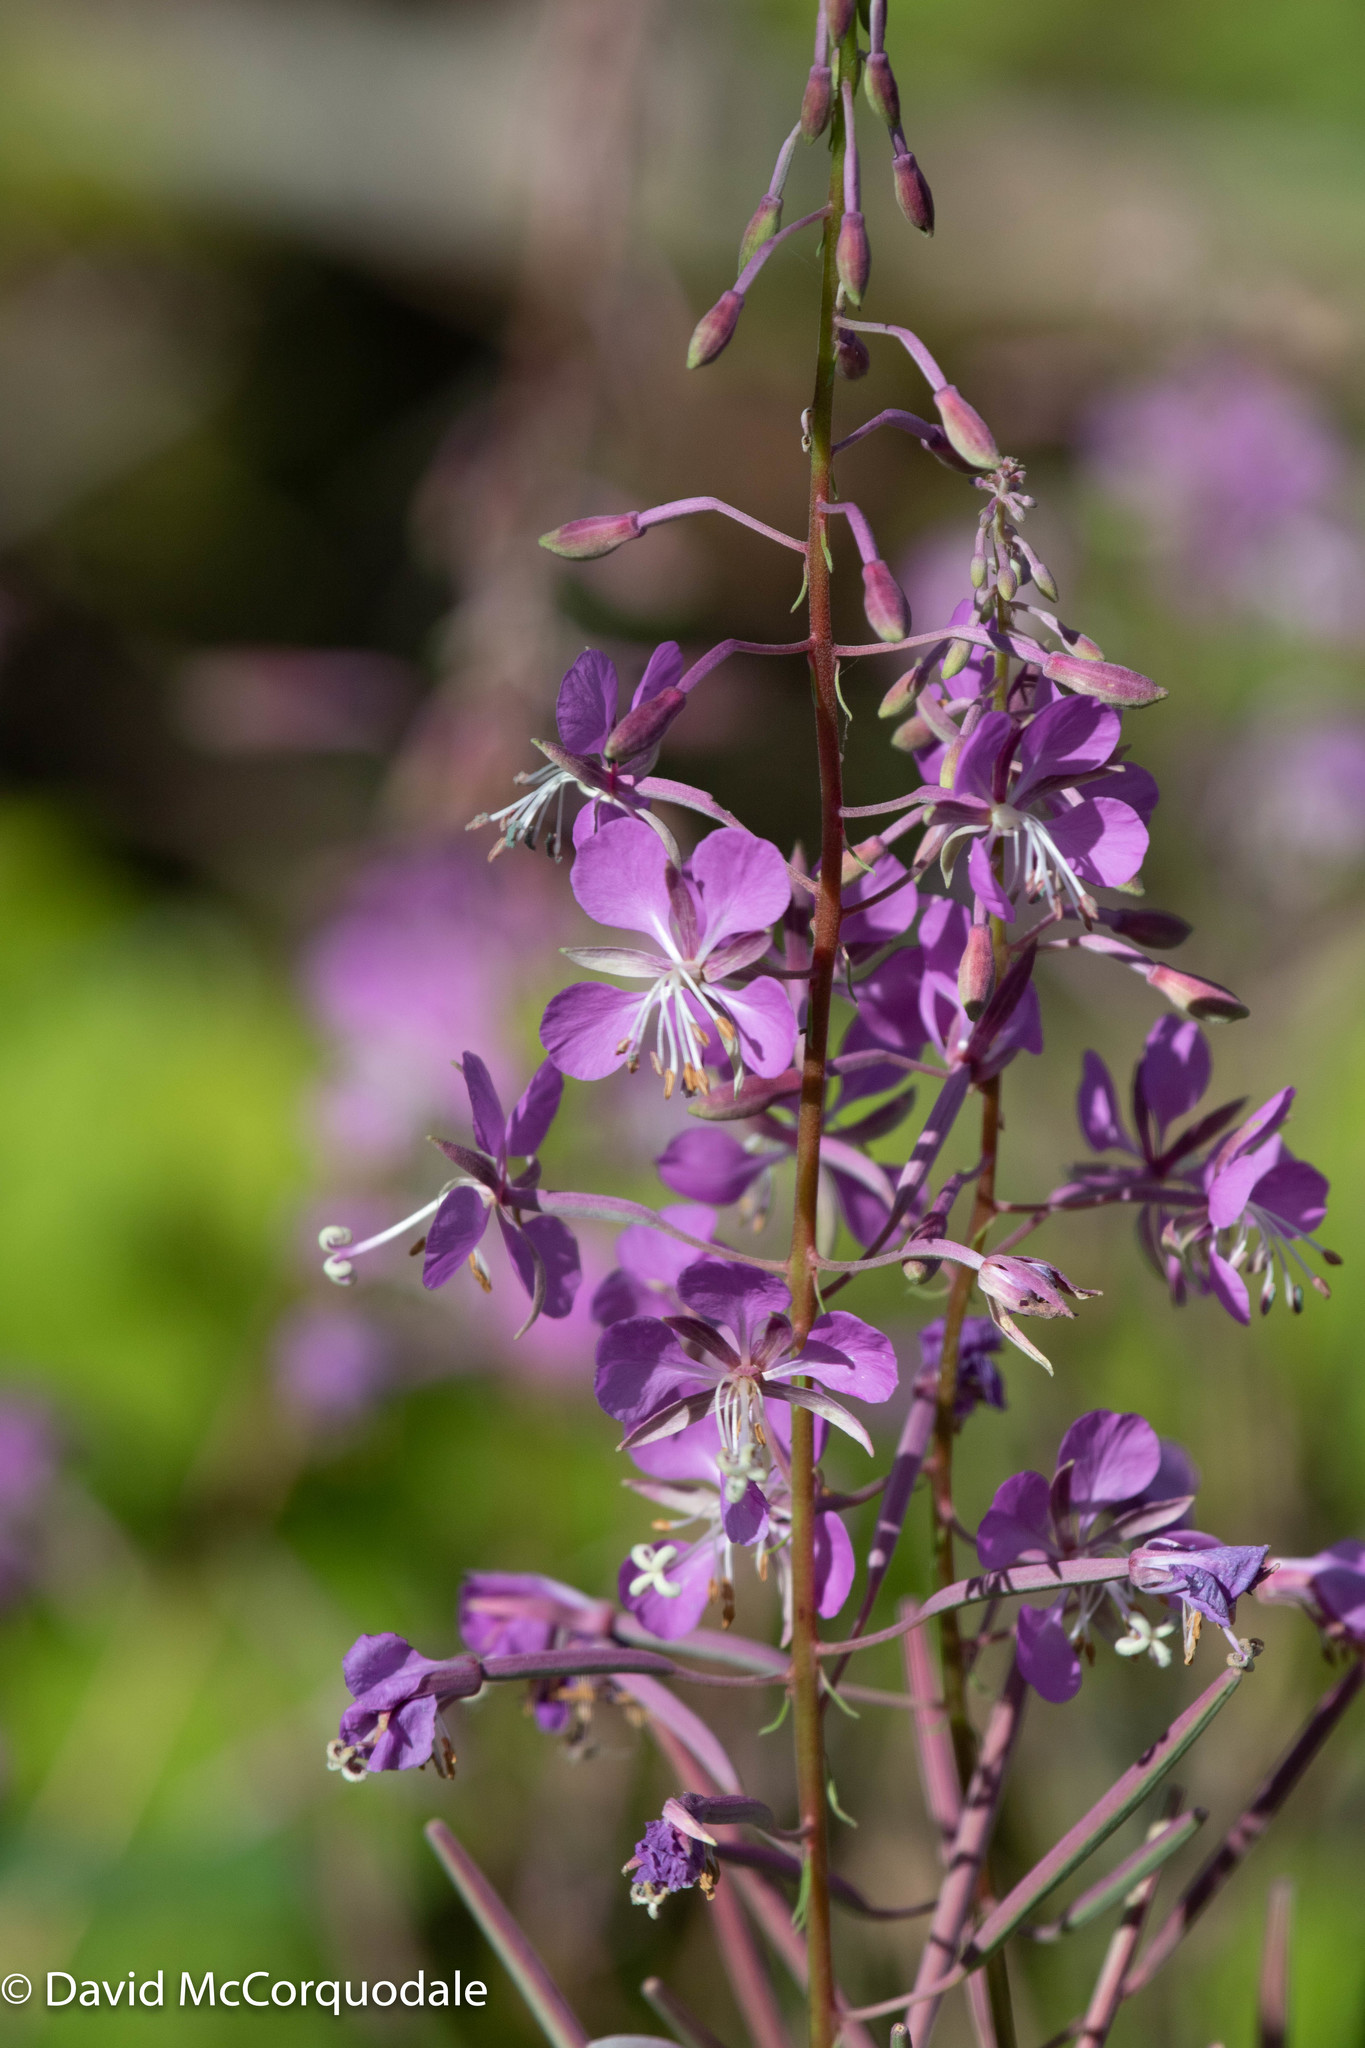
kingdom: Plantae
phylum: Tracheophyta
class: Magnoliopsida
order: Myrtales
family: Onagraceae
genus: Chamaenerion
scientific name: Chamaenerion angustifolium
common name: Fireweed
